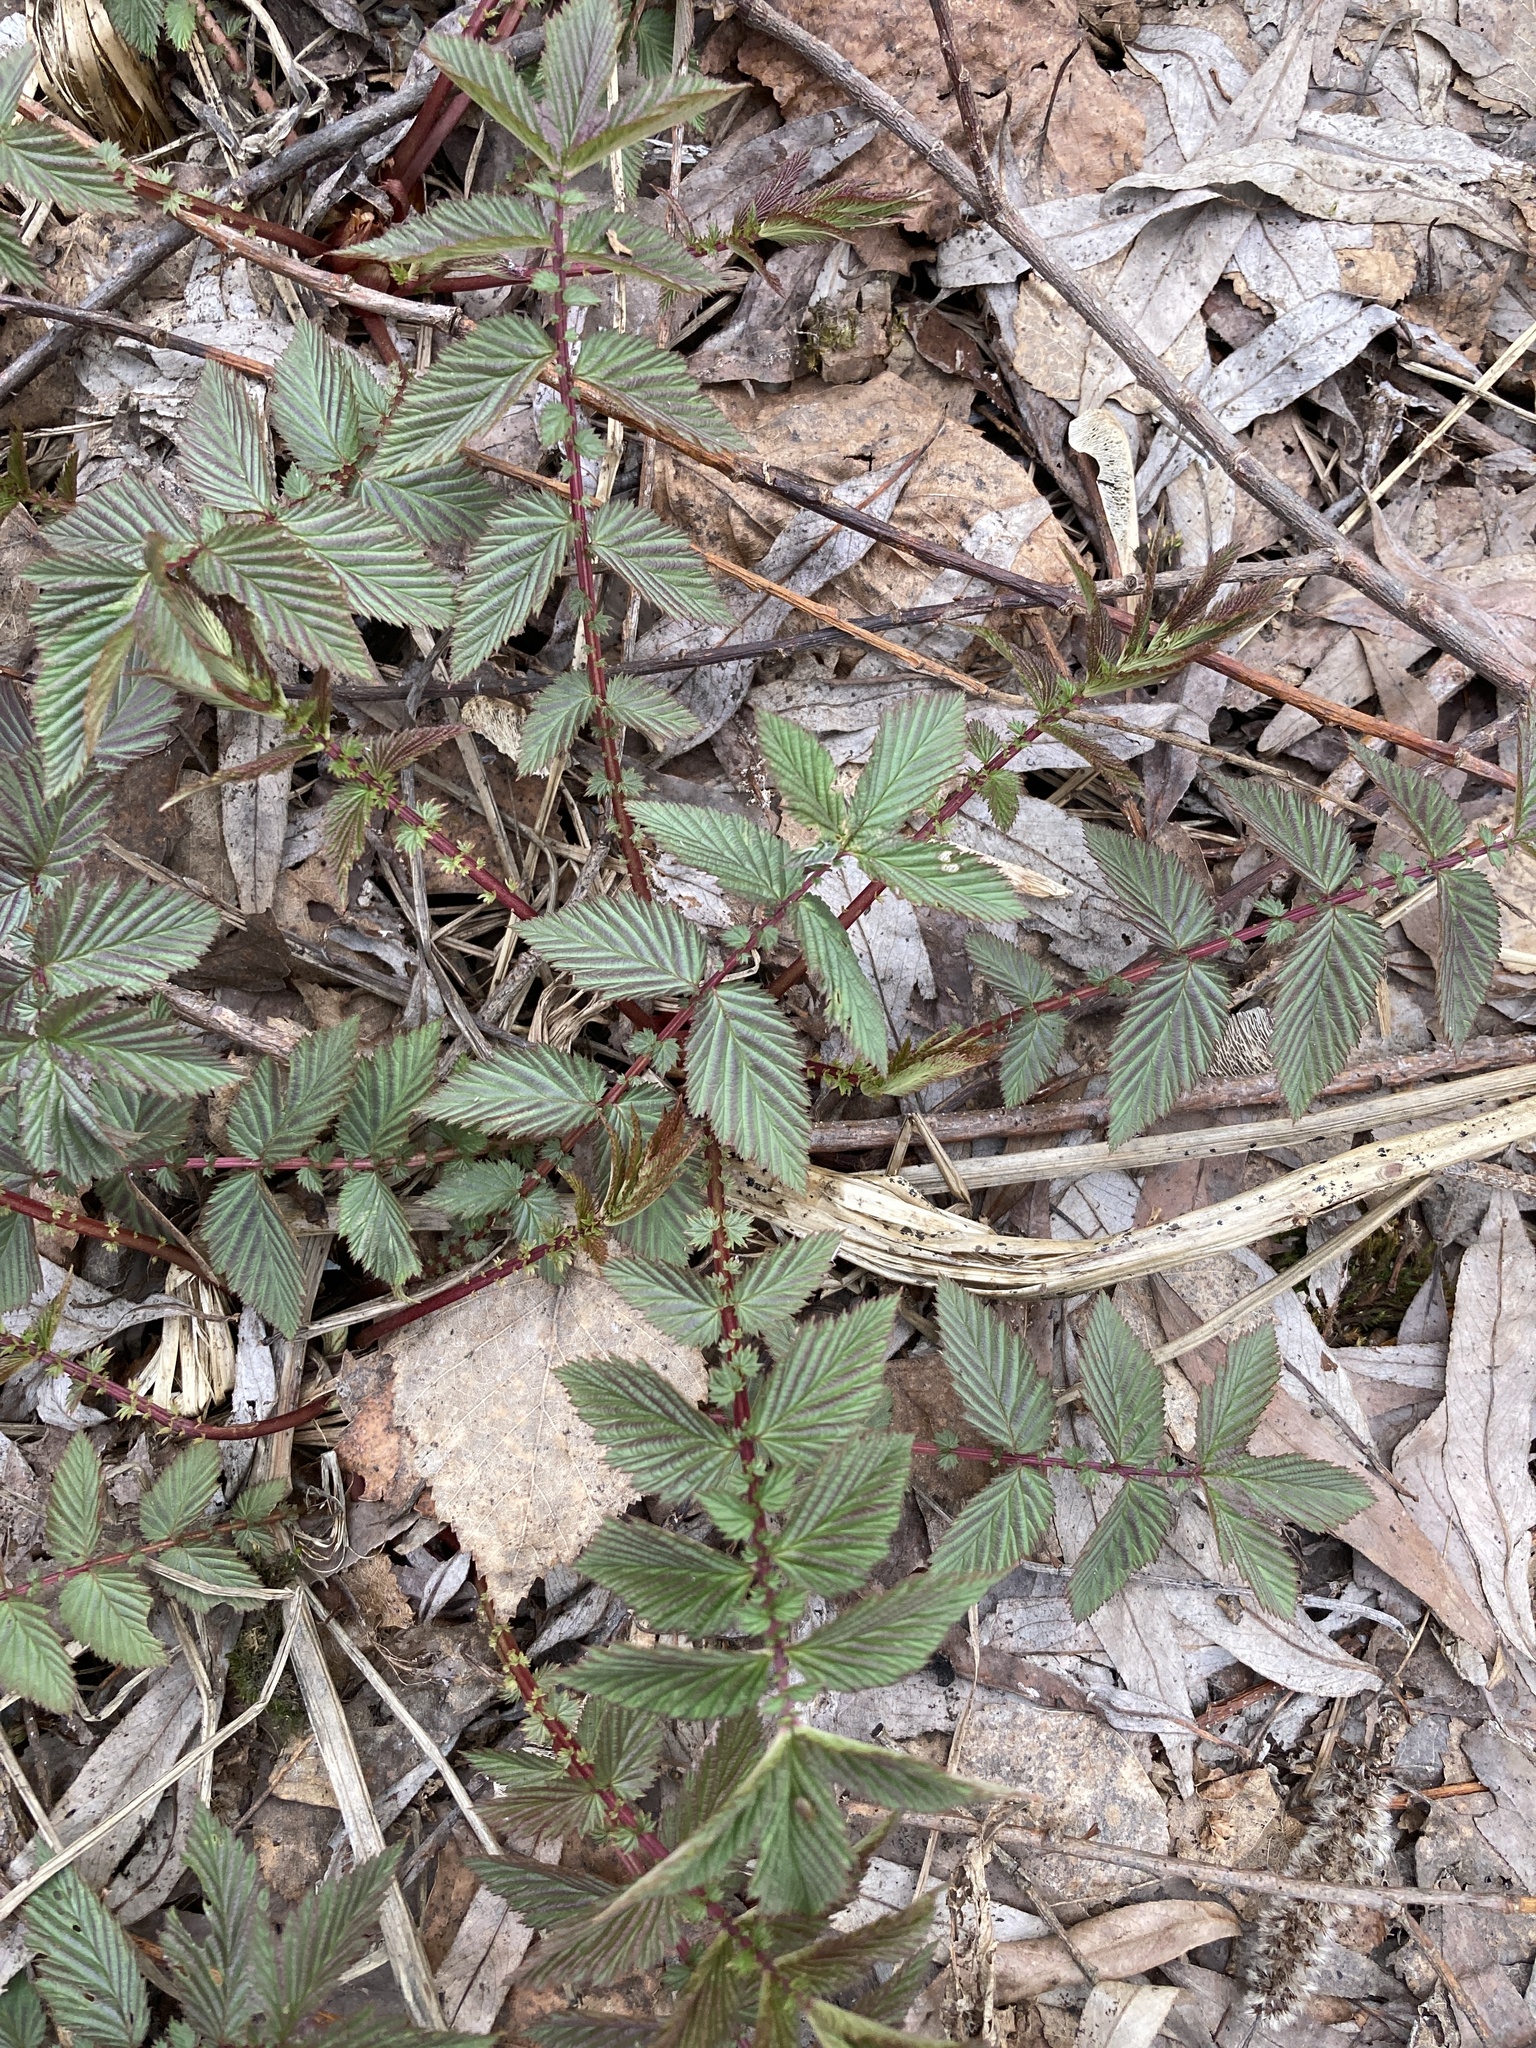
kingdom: Plantae
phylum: Tracheophyta
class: Magnoliopsida
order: Rosales
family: Rosaceae
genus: Filipendula
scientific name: Filipendula ulmaria
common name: Meadowsweet
